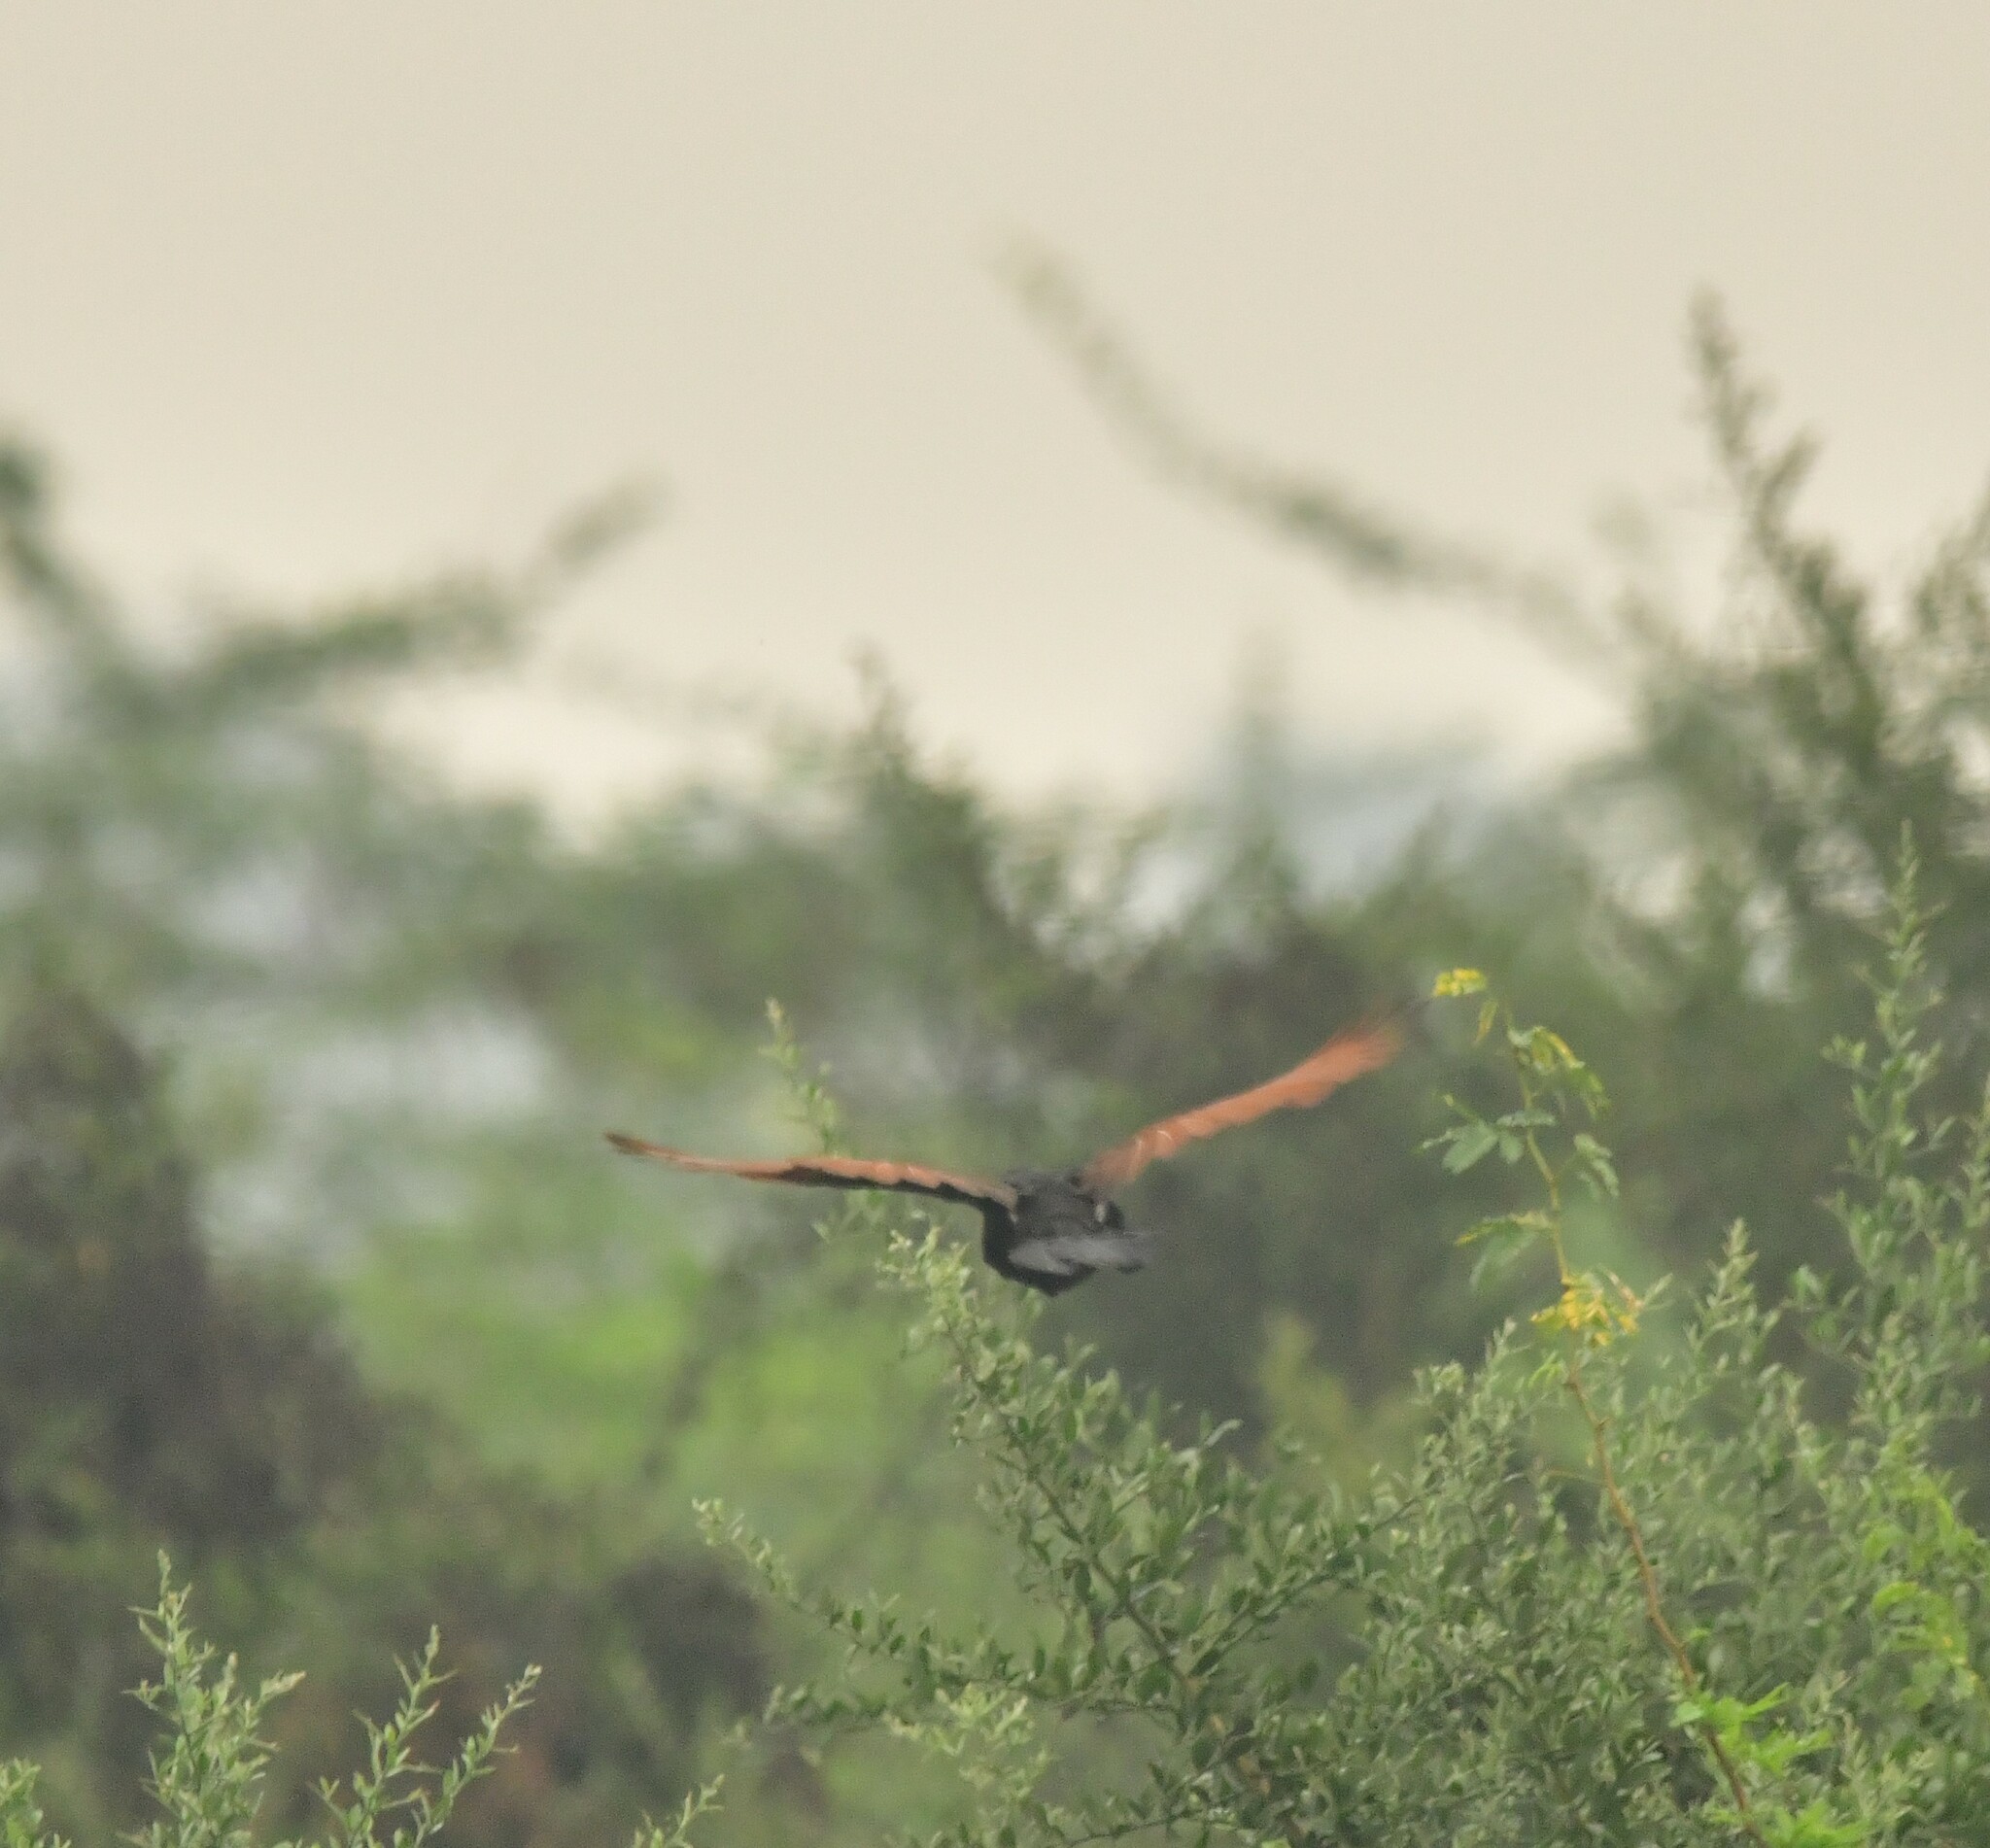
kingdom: Animalia
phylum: Chordata
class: Aves
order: Cuculiformes
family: Cuculidae
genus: Centropus
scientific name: Centropus sinensis
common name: Greater coucal
